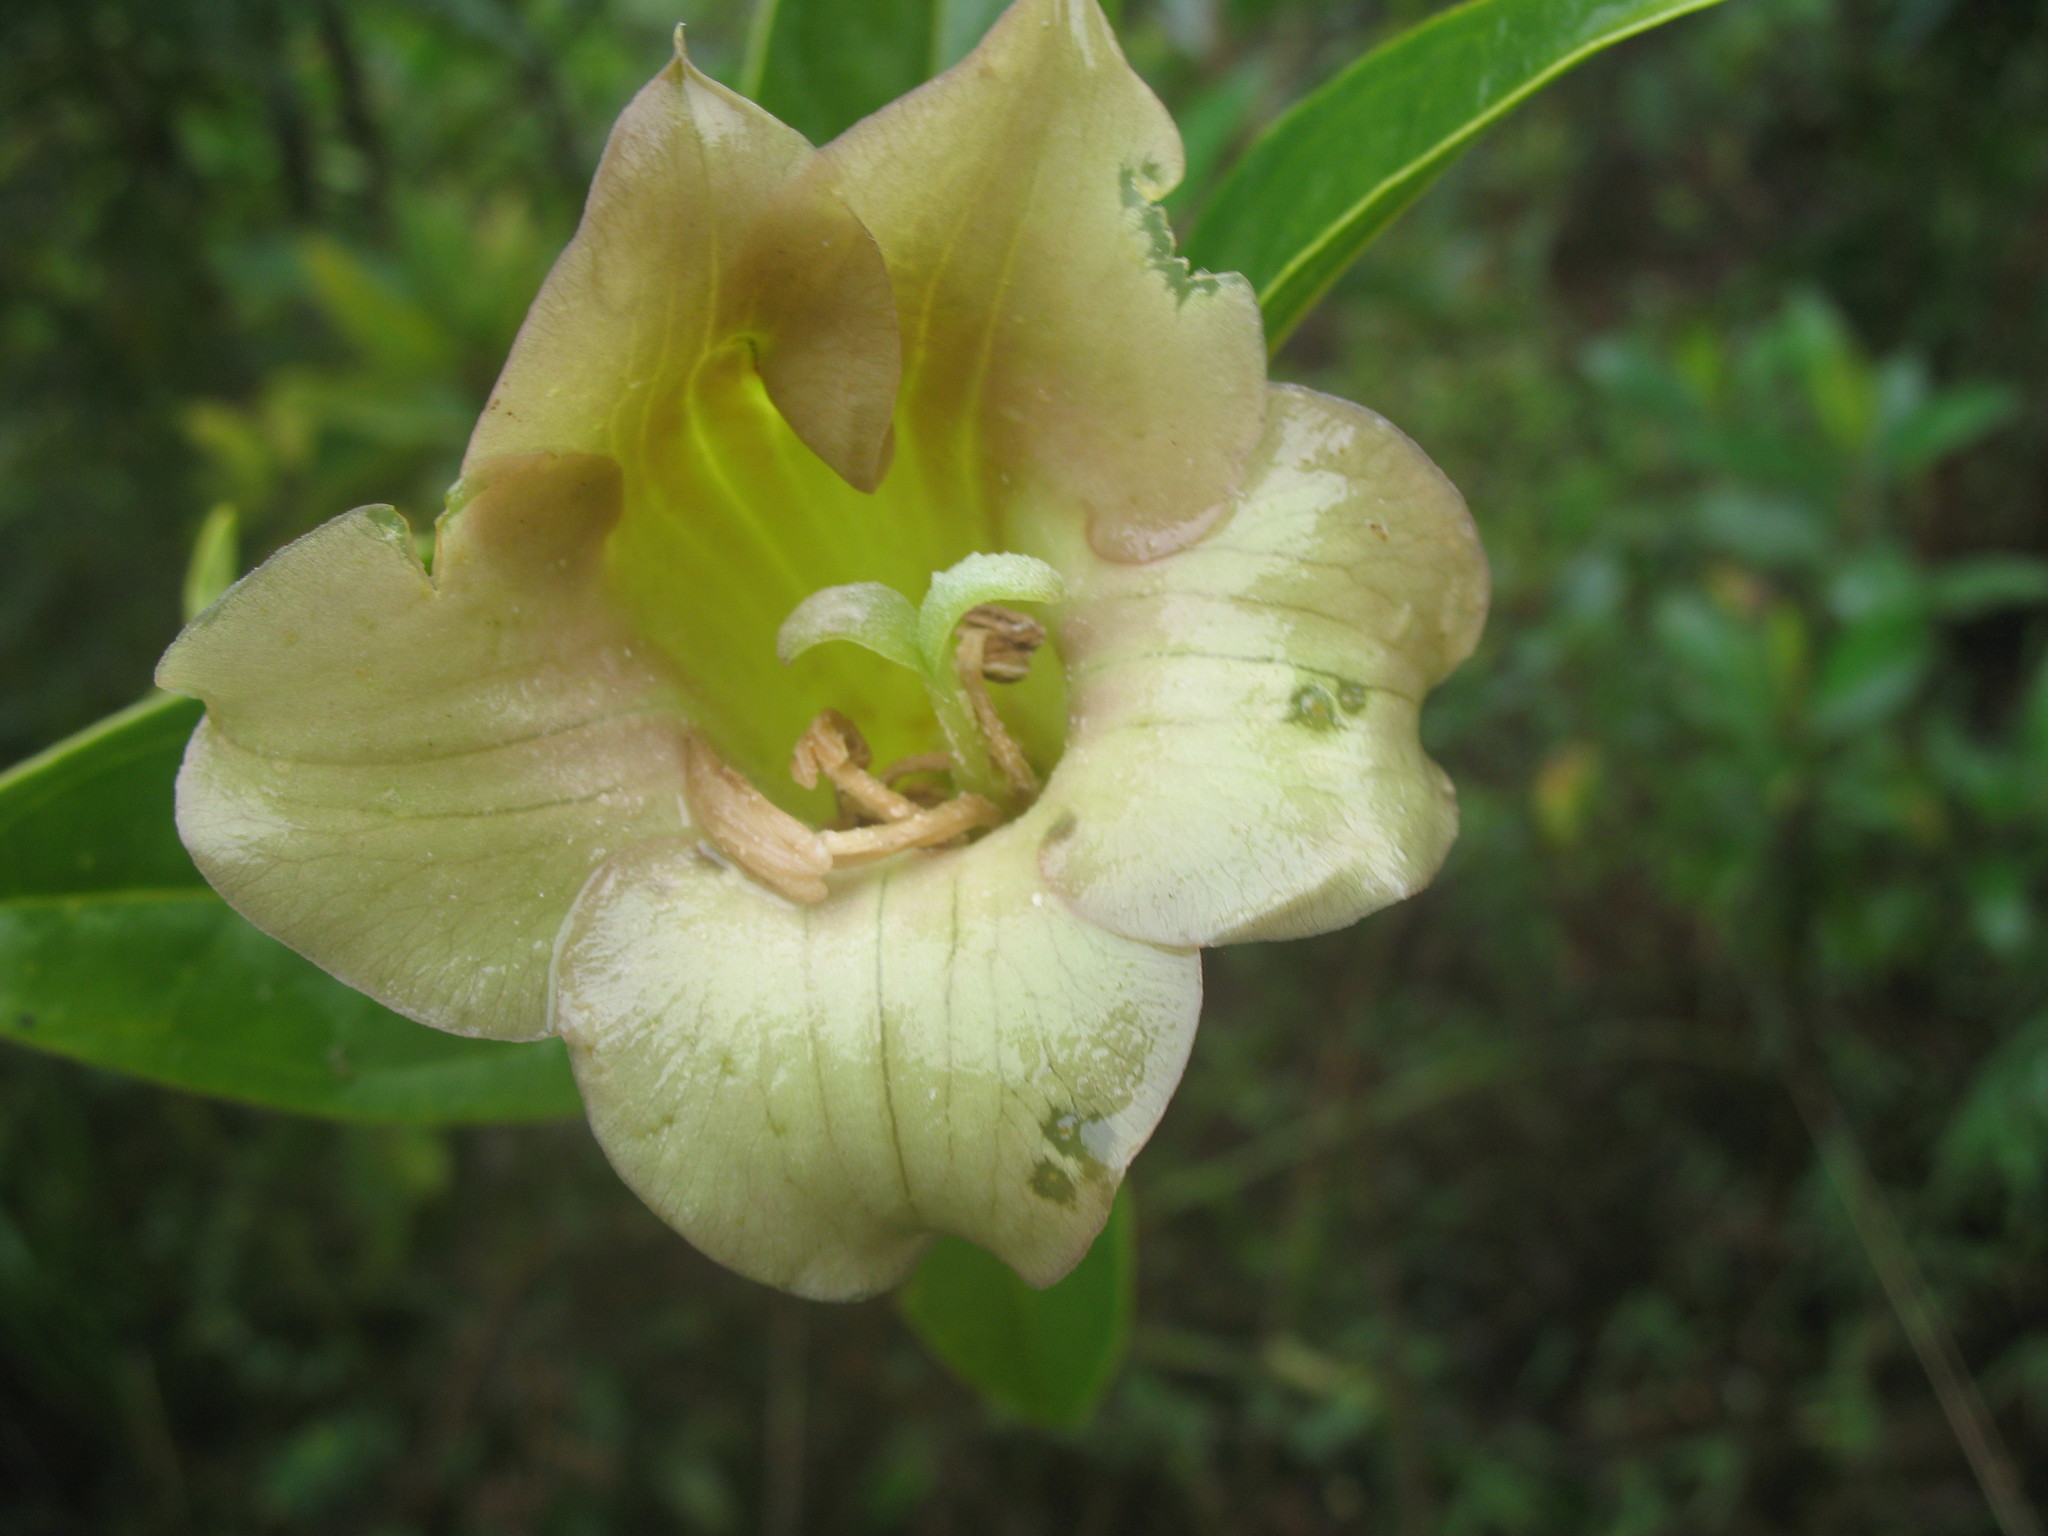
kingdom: Plantae
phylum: Tracheophyta
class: Magnoliopsida
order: Gentianales
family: Gentianaceae
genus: Symbolanthus
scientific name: Symbolanthus incaicus
